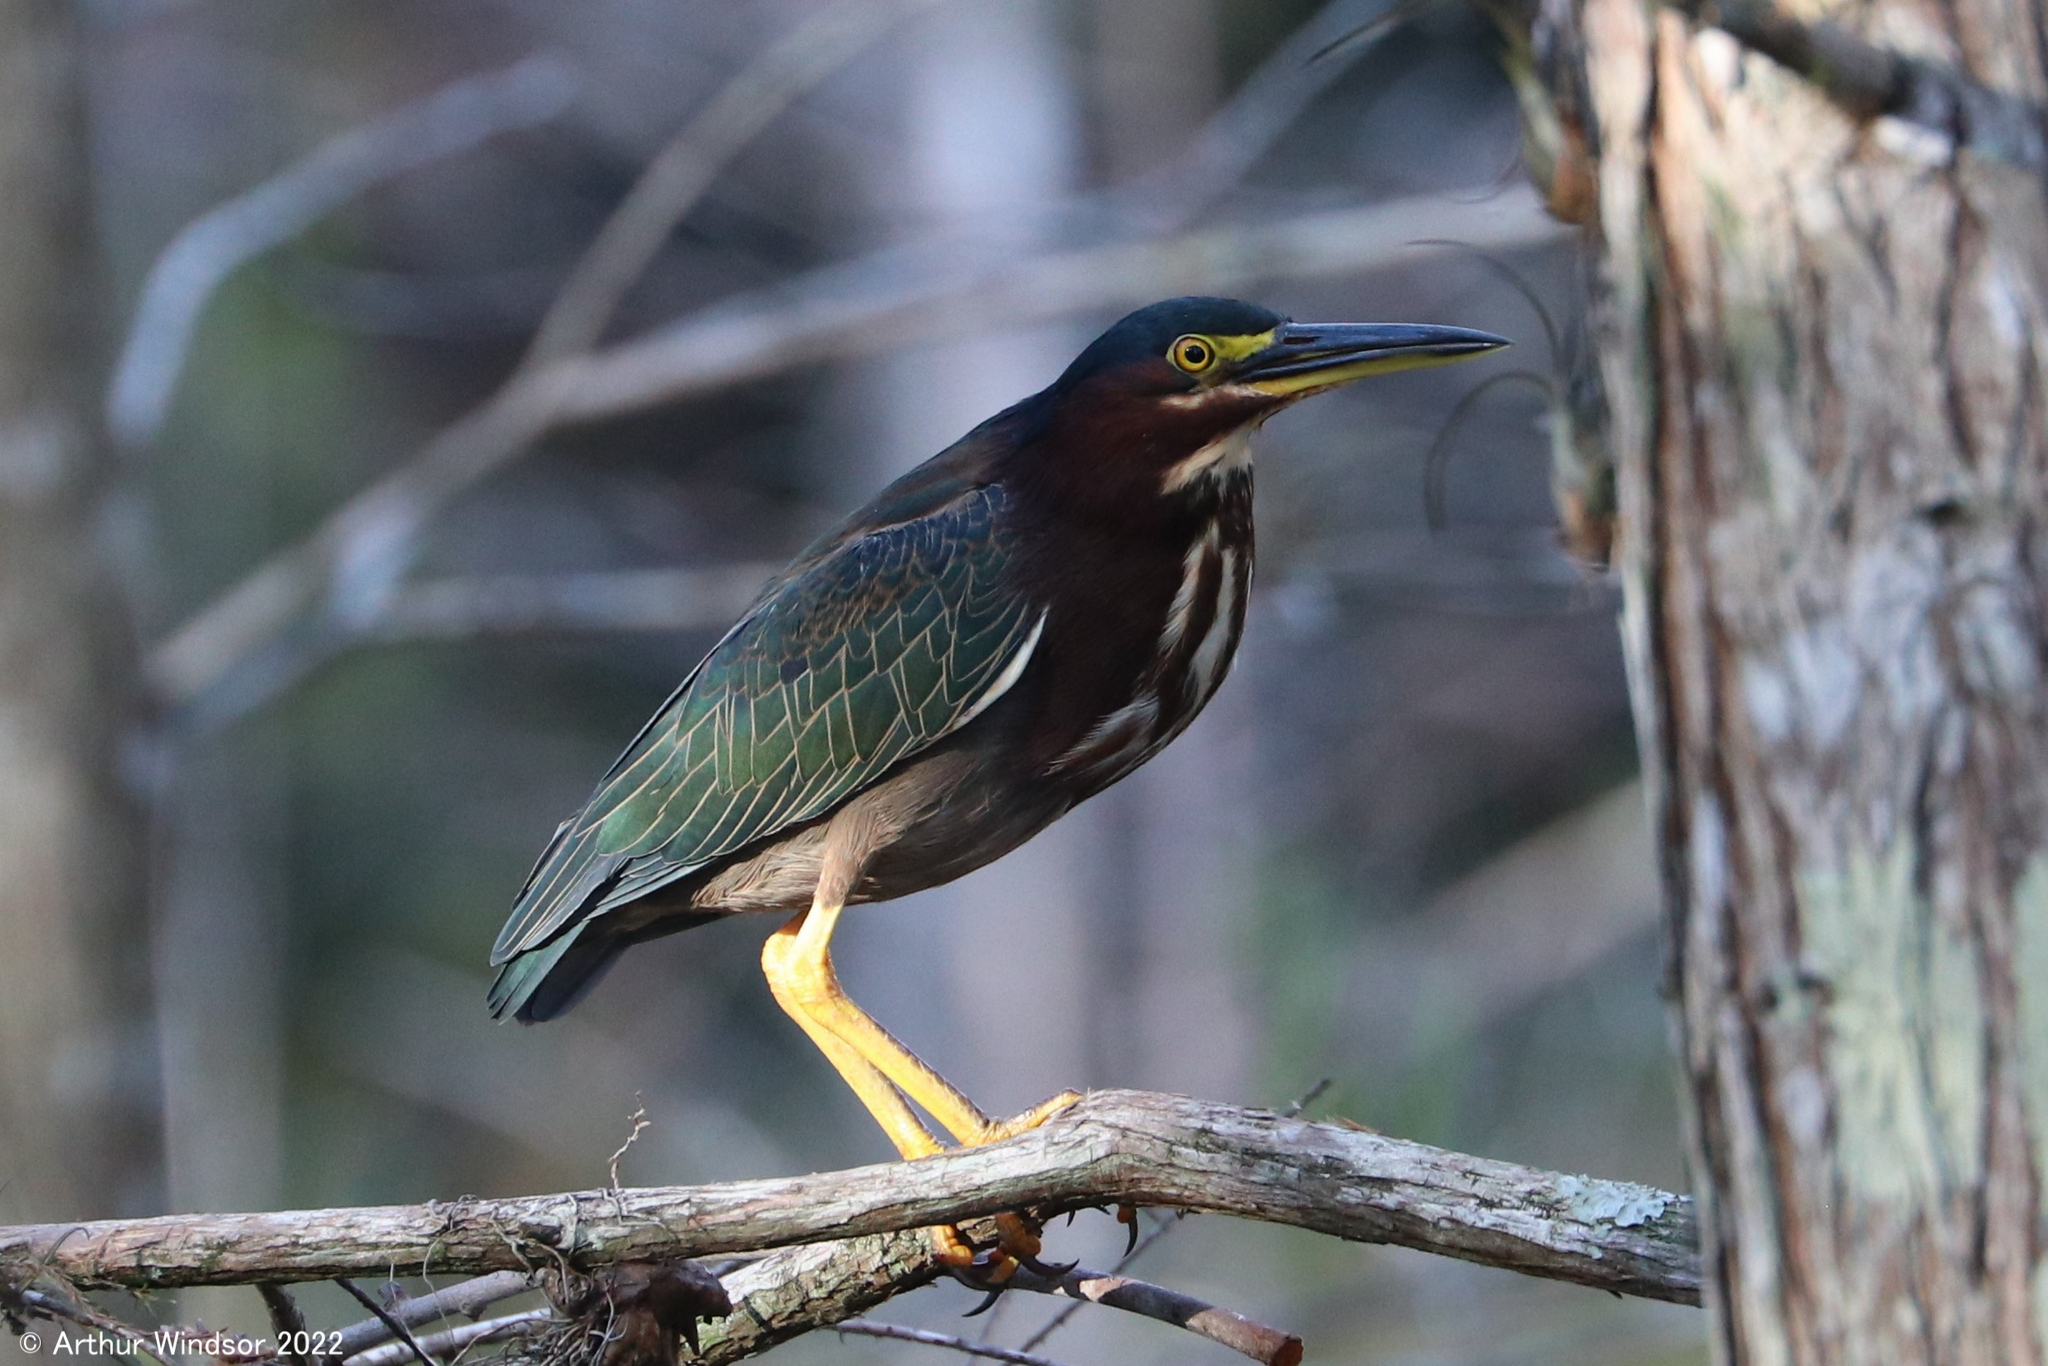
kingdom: Animalia
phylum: Chordata
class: Aves
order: Pelecaniformes
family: Ardeidae
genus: Butorides
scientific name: Butorides virescens
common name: Green heron
